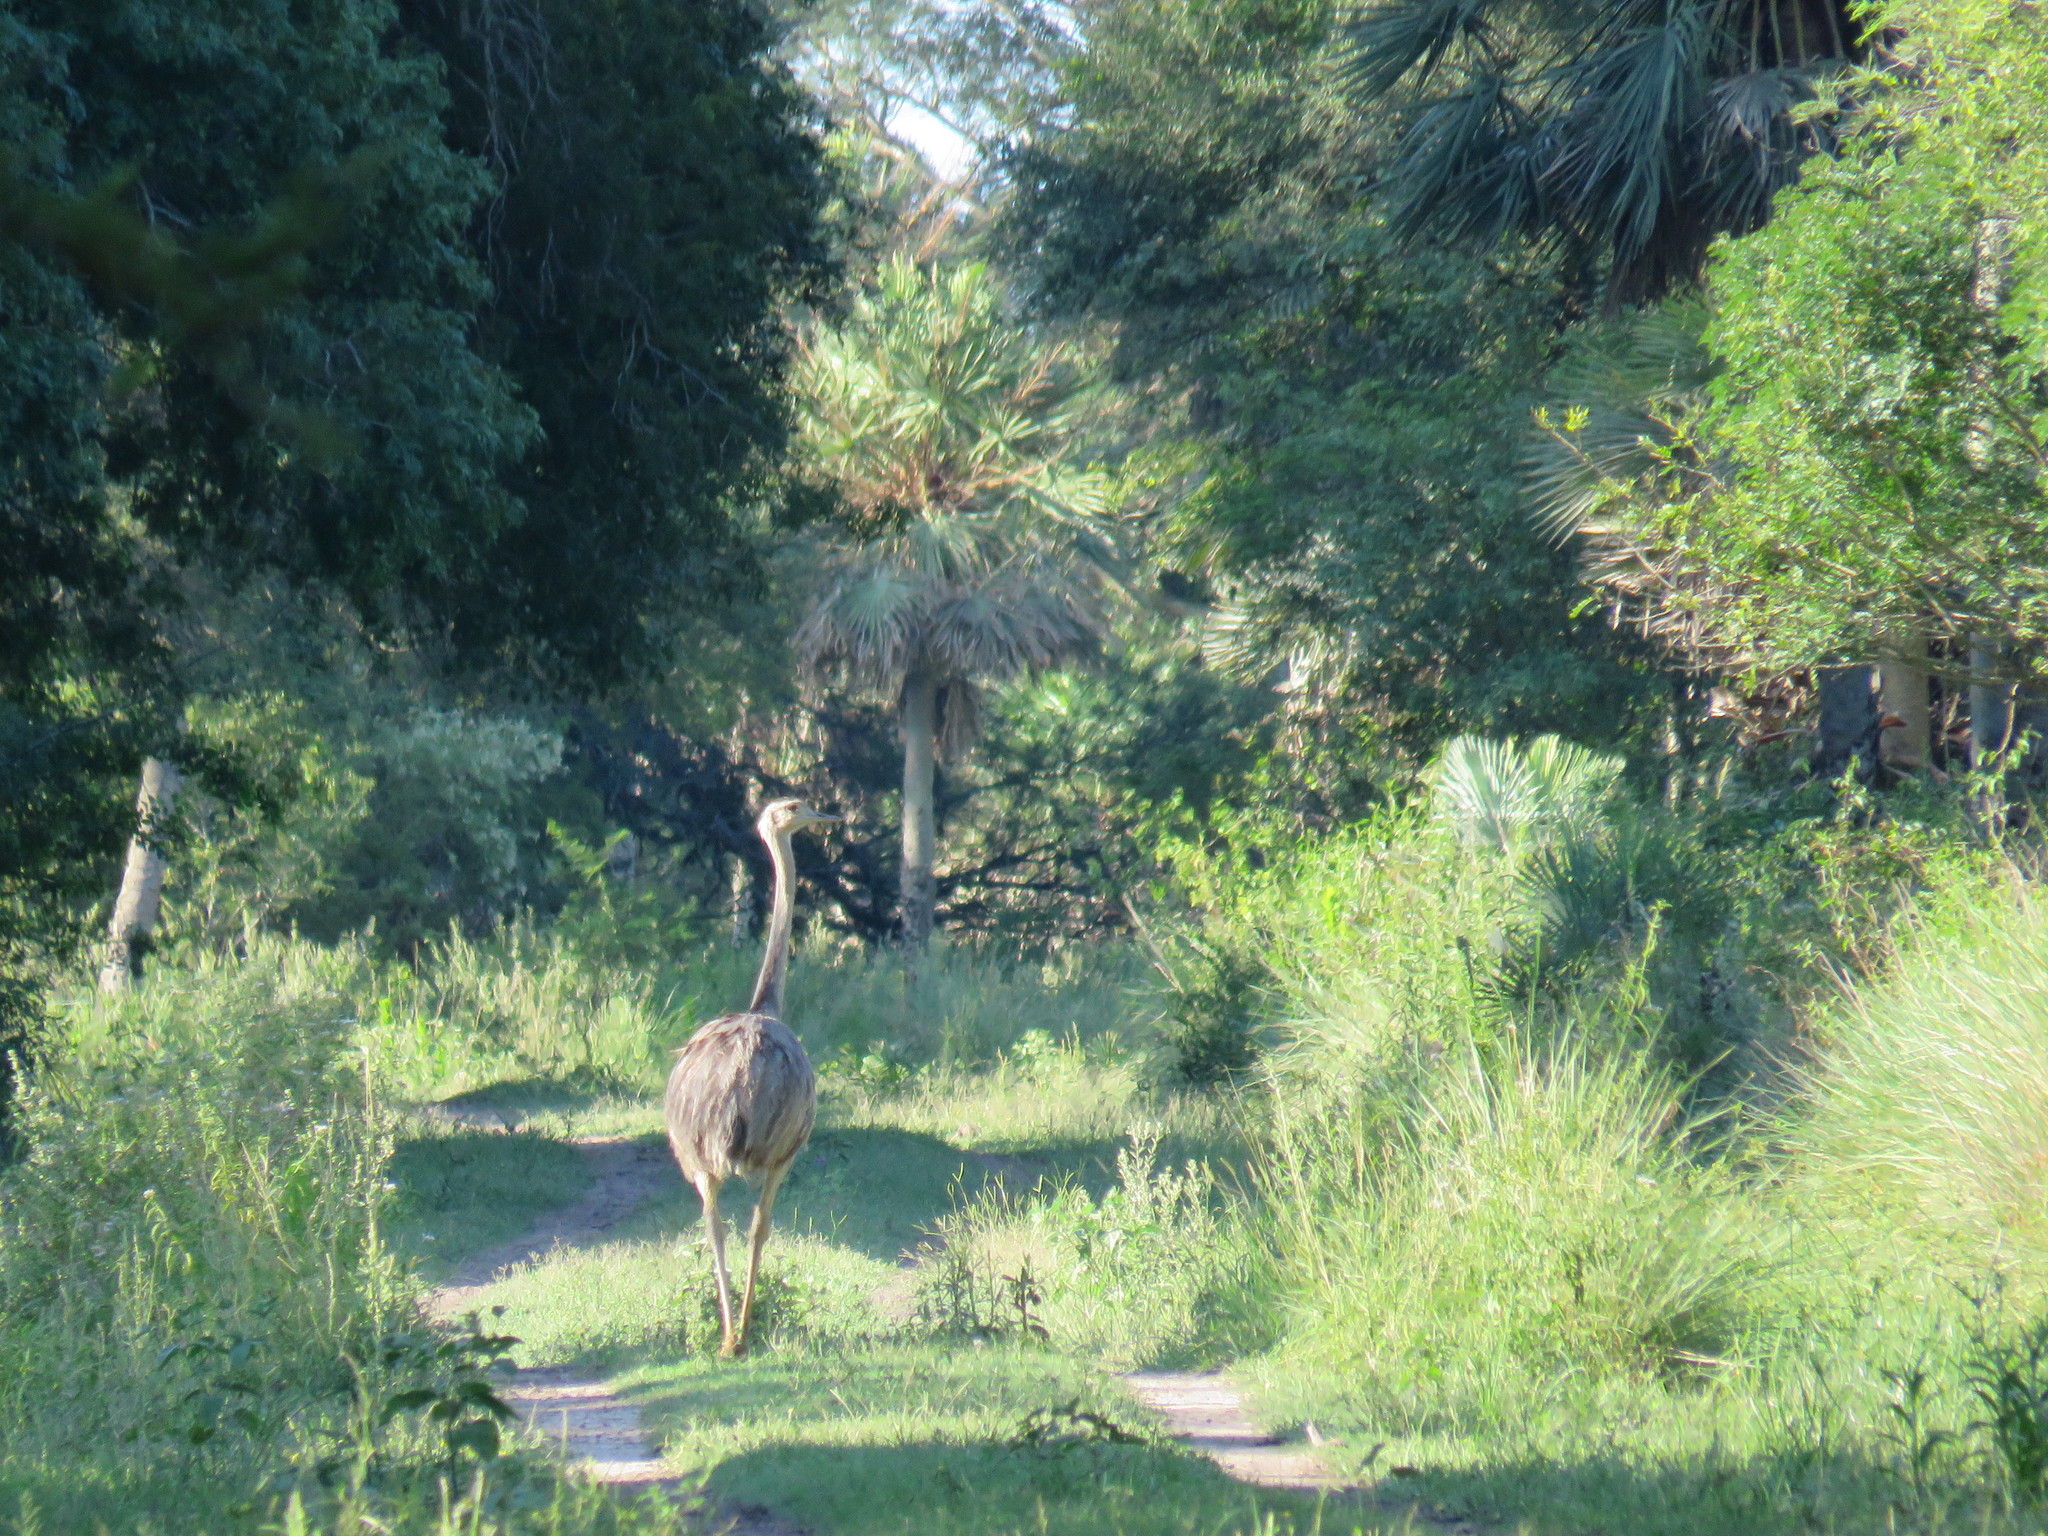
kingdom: Animalia
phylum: Chordata
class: Aves
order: Rheiformes
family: Rheidae
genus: Rhea
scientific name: Rhea americana
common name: Greater rhea
